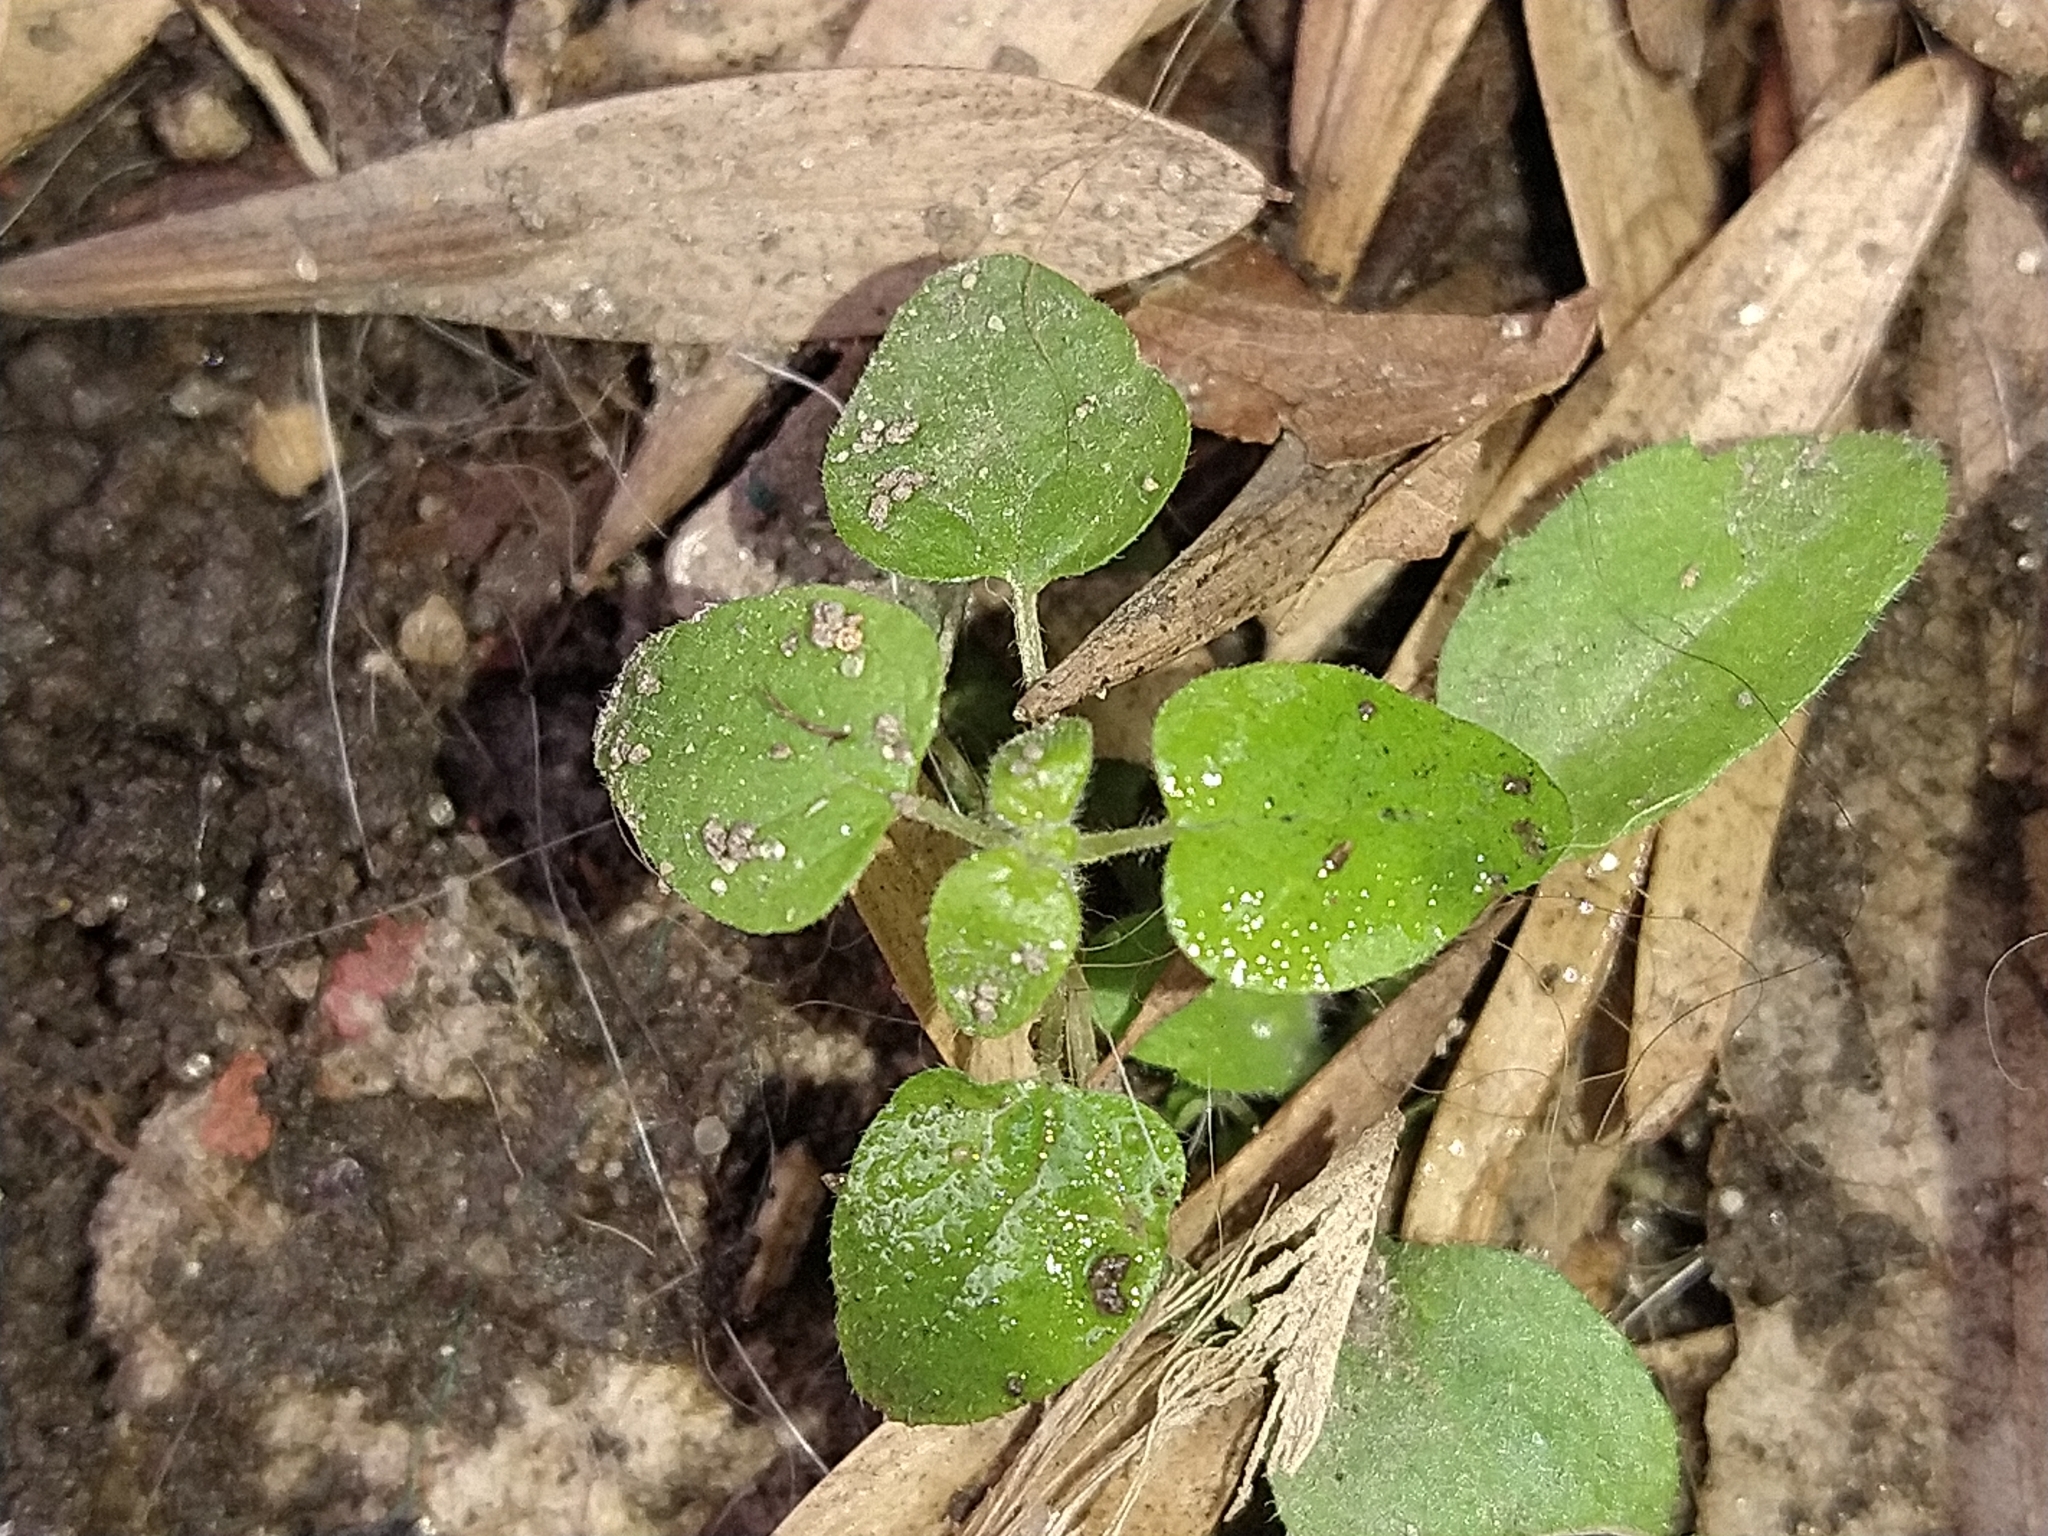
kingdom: Plantae
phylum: Tracheophyta
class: Magnoliopsida
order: Solanales
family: Solanaceae
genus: Salpichroa
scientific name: Salpichroa origanifolia
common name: Lily-of-the-valley-vine
